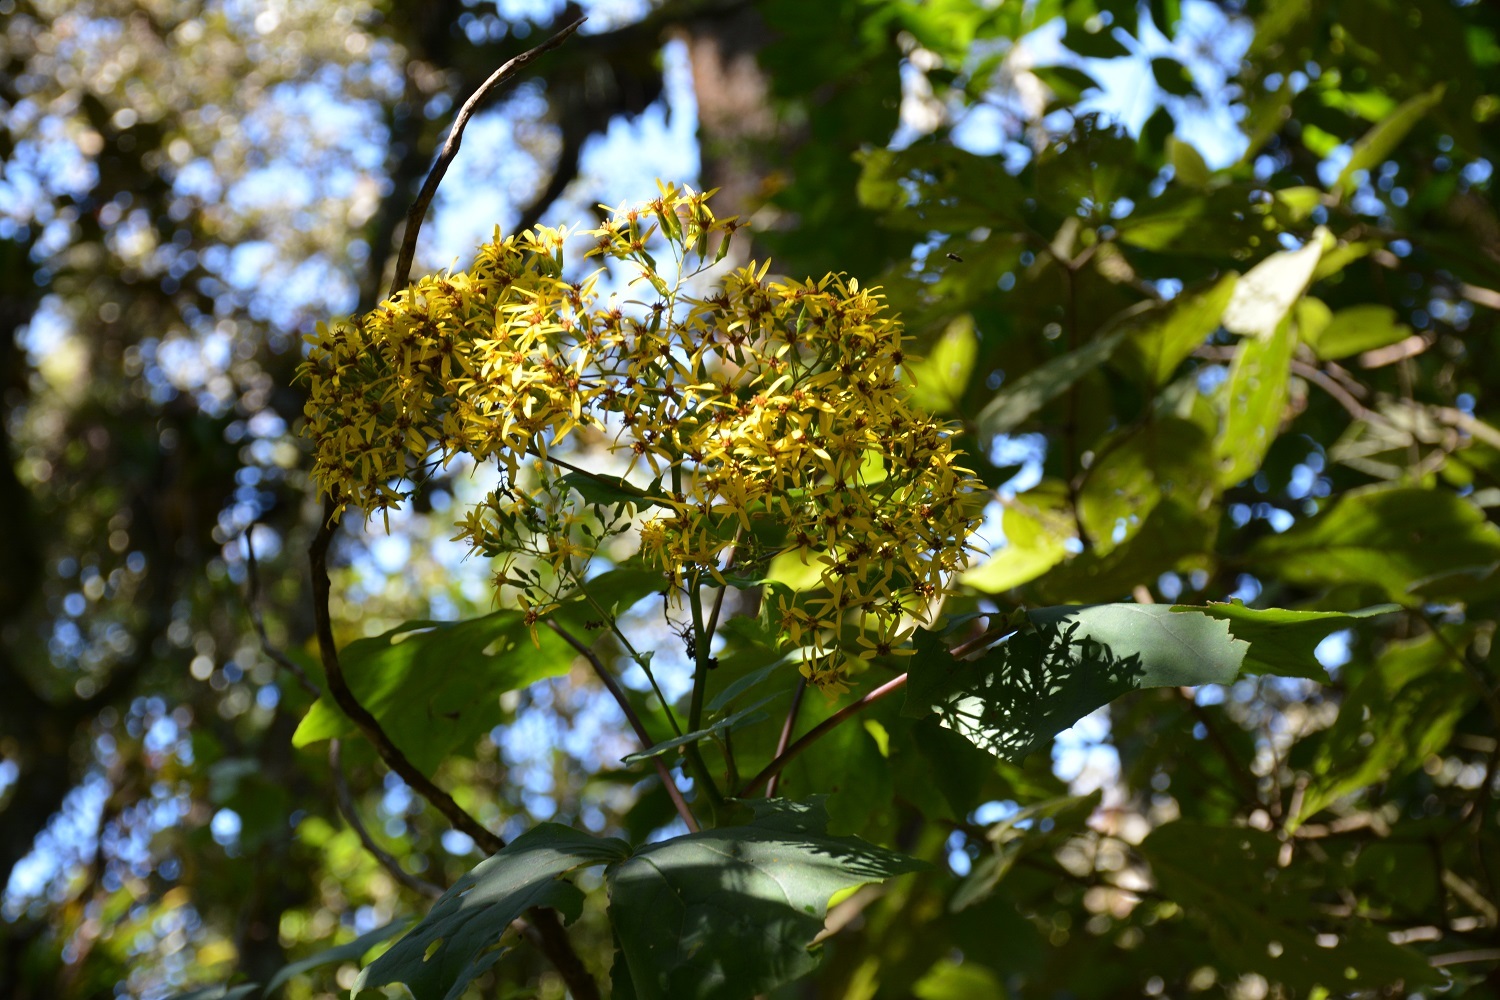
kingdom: Plantae
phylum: Tracheophyta
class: Magnoliopsida
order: Asterales
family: Asteraceae
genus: Roldana
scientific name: Roldana cristobalensis
